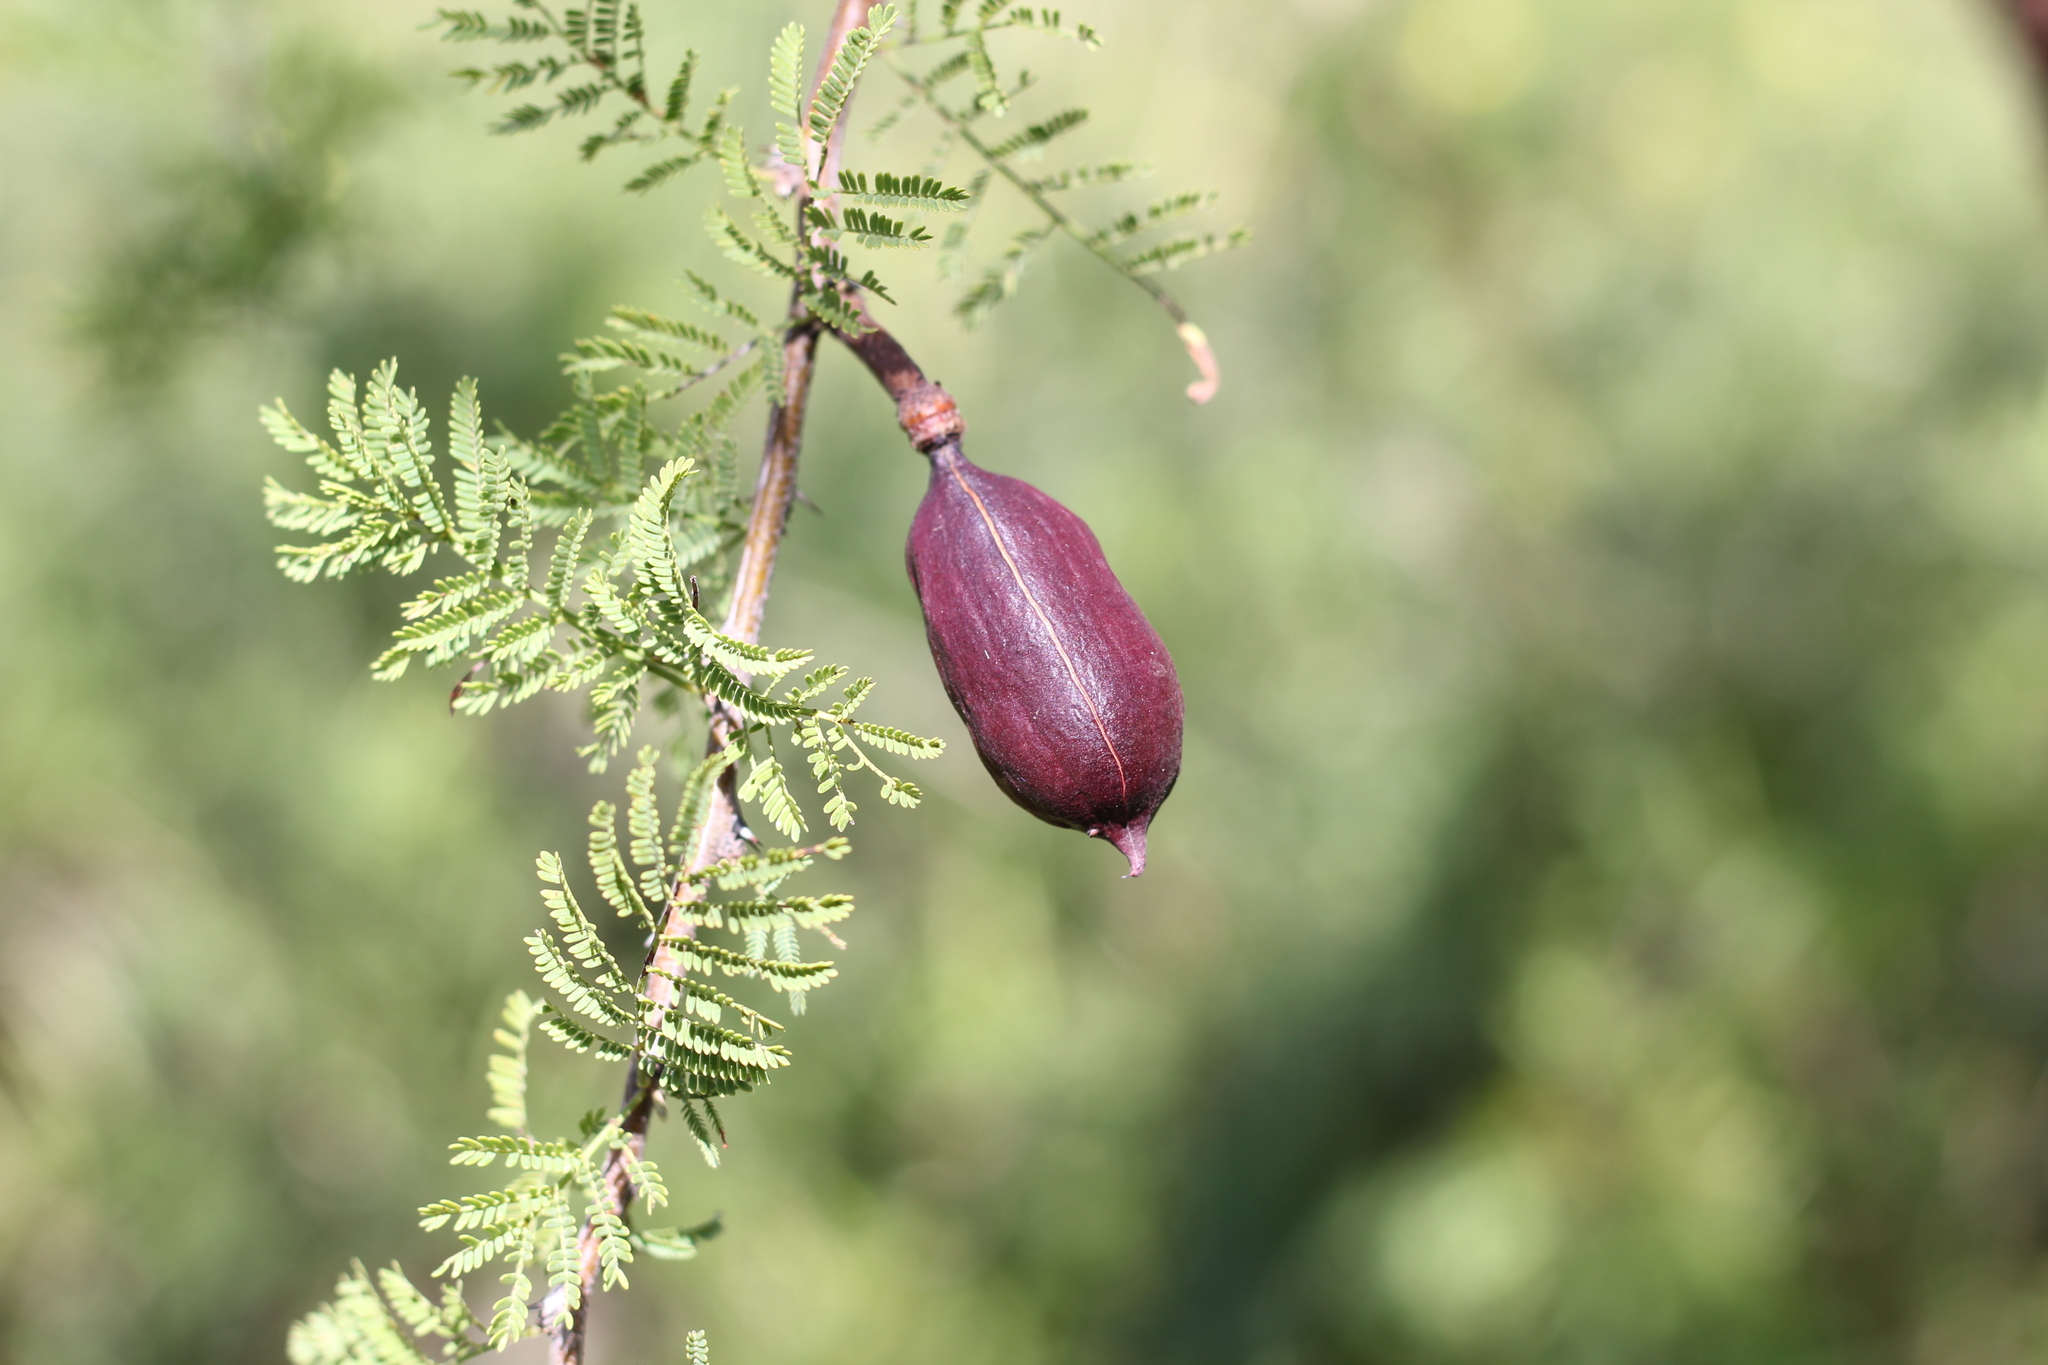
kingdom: Plantae
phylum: Tracheophyta
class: Magnoliopsida
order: Fabales
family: Fabaceae
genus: Vachellia
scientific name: Vachellia caven
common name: Roman cassie
